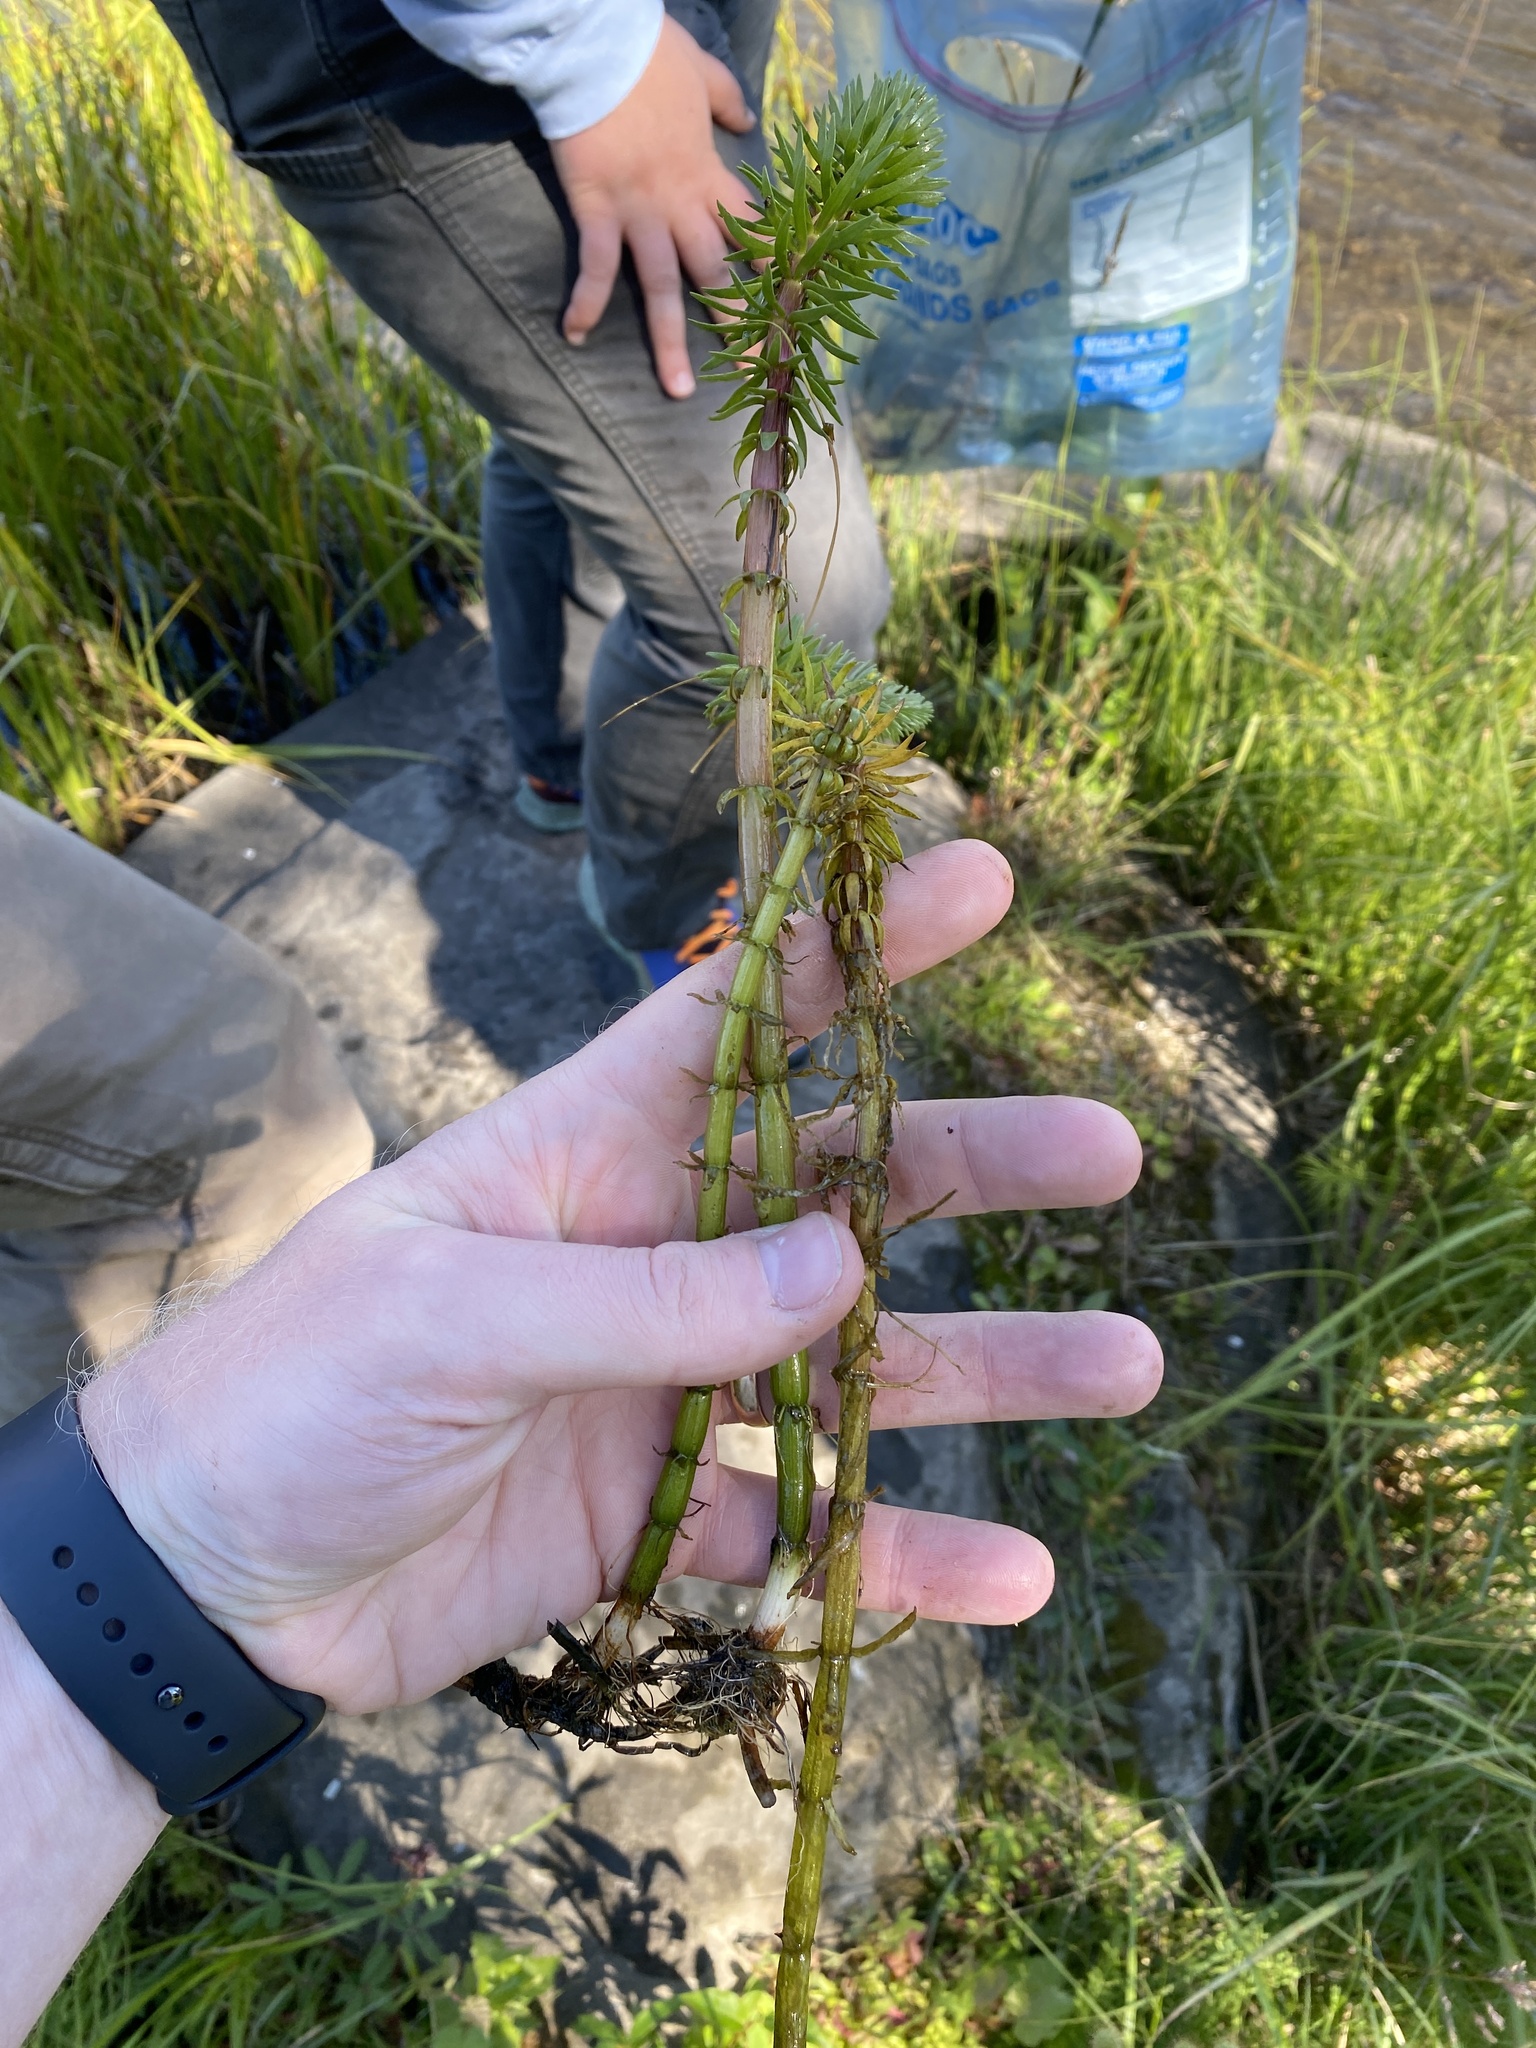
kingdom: Plantae
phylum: Tracheophyta
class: Magnoliopsida
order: Lamiales
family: Plantaginaceae
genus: Hippuris
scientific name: Hippuris vulgaris
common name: Mare's-tail
